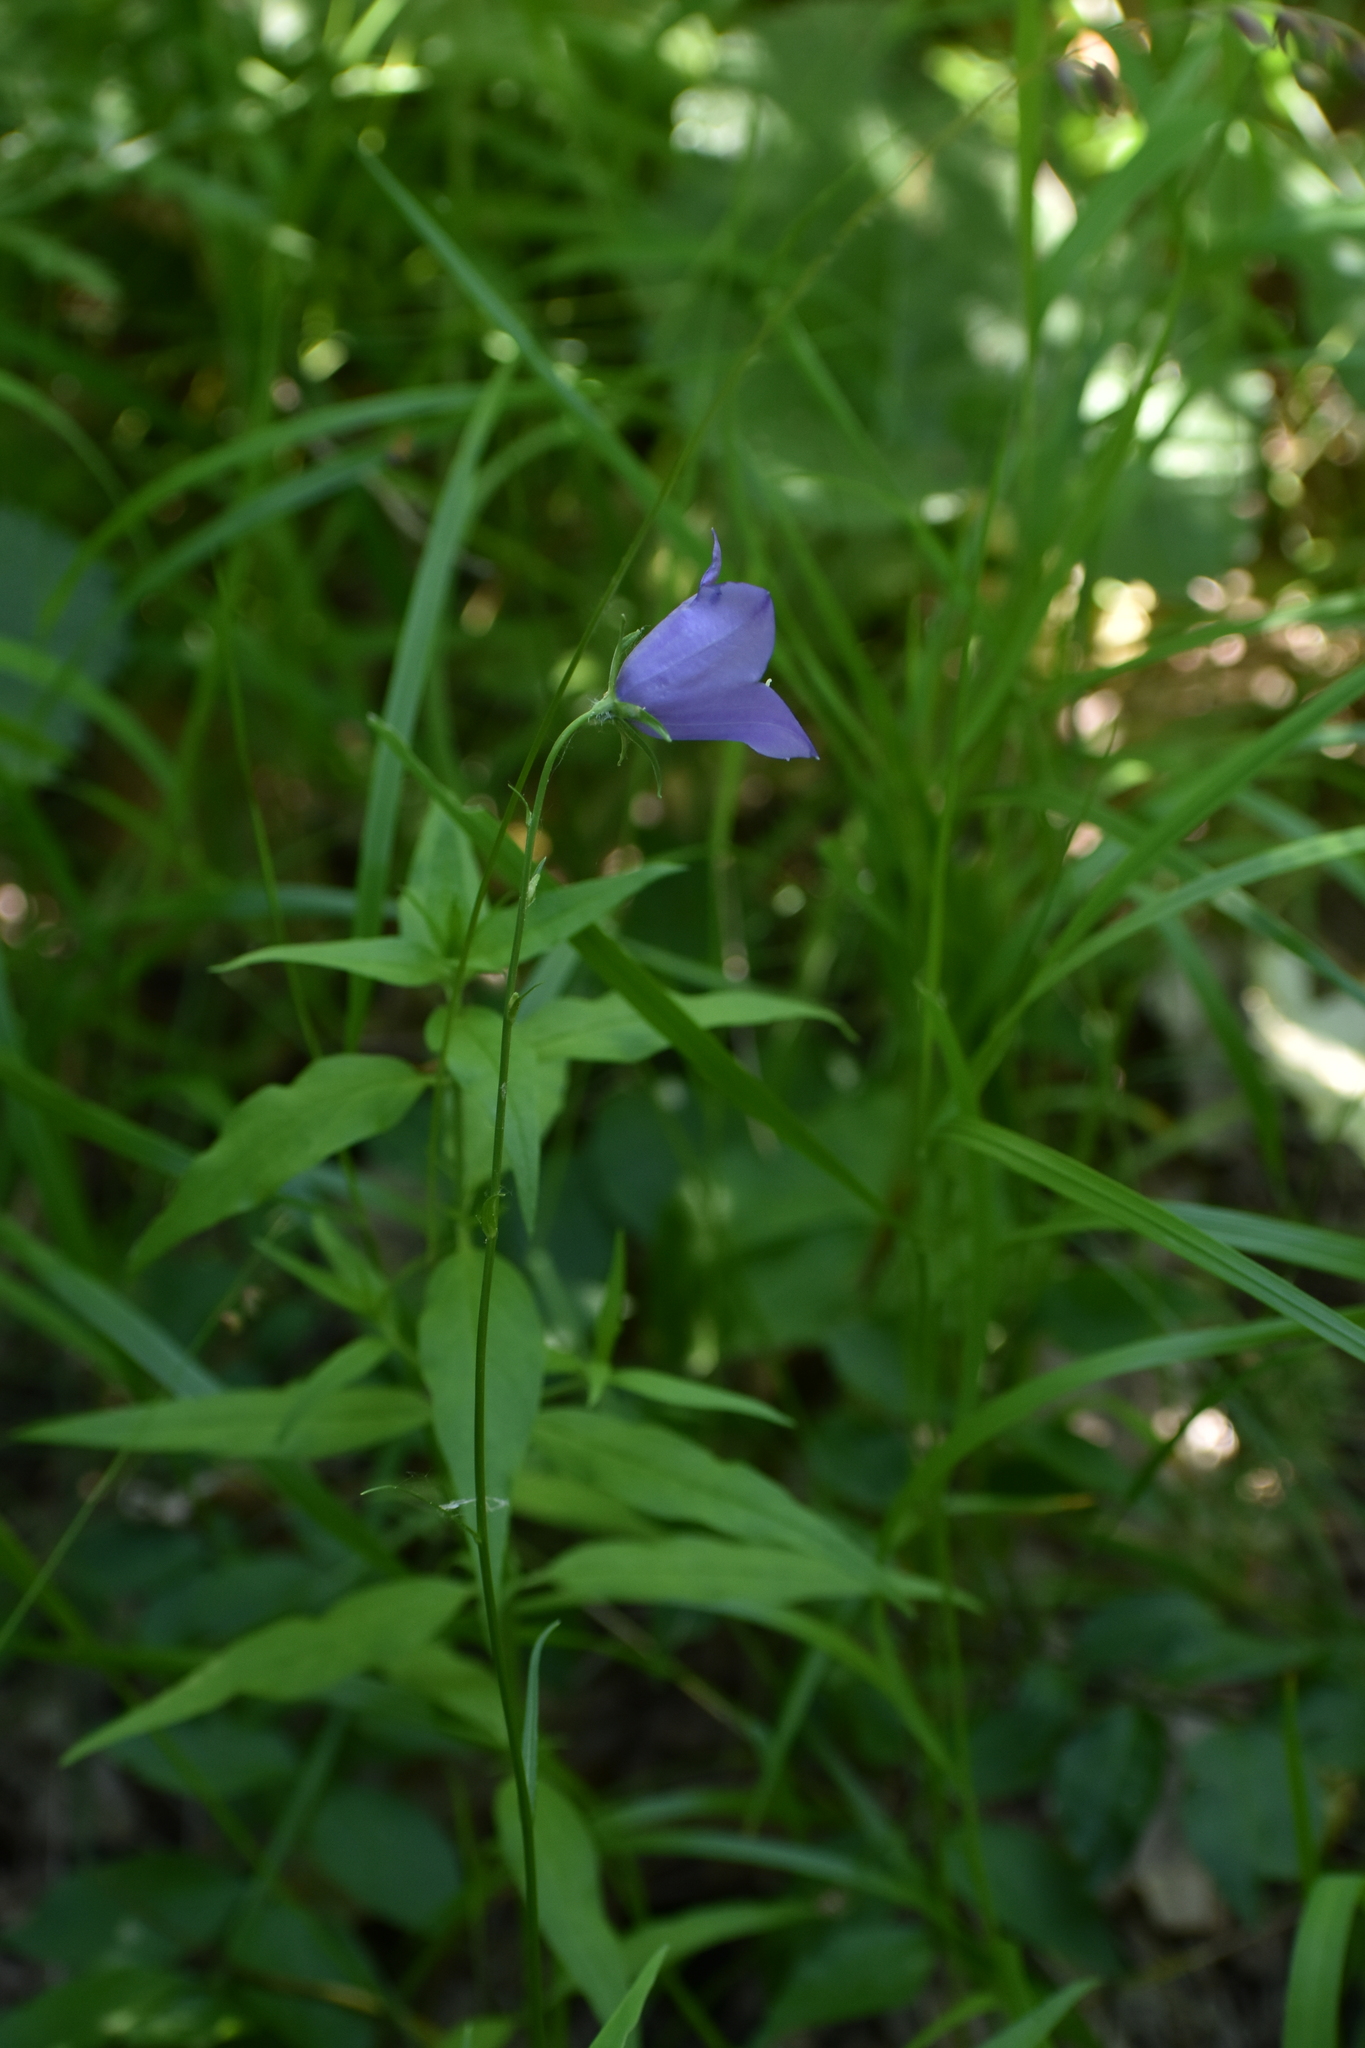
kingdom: Plantae
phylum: Tracheophyta
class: Magnoliopsida
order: Asterales
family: Campanulaceae
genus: Campanula
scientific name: Campanula persicifolia
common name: Peach-leaved bellflower
